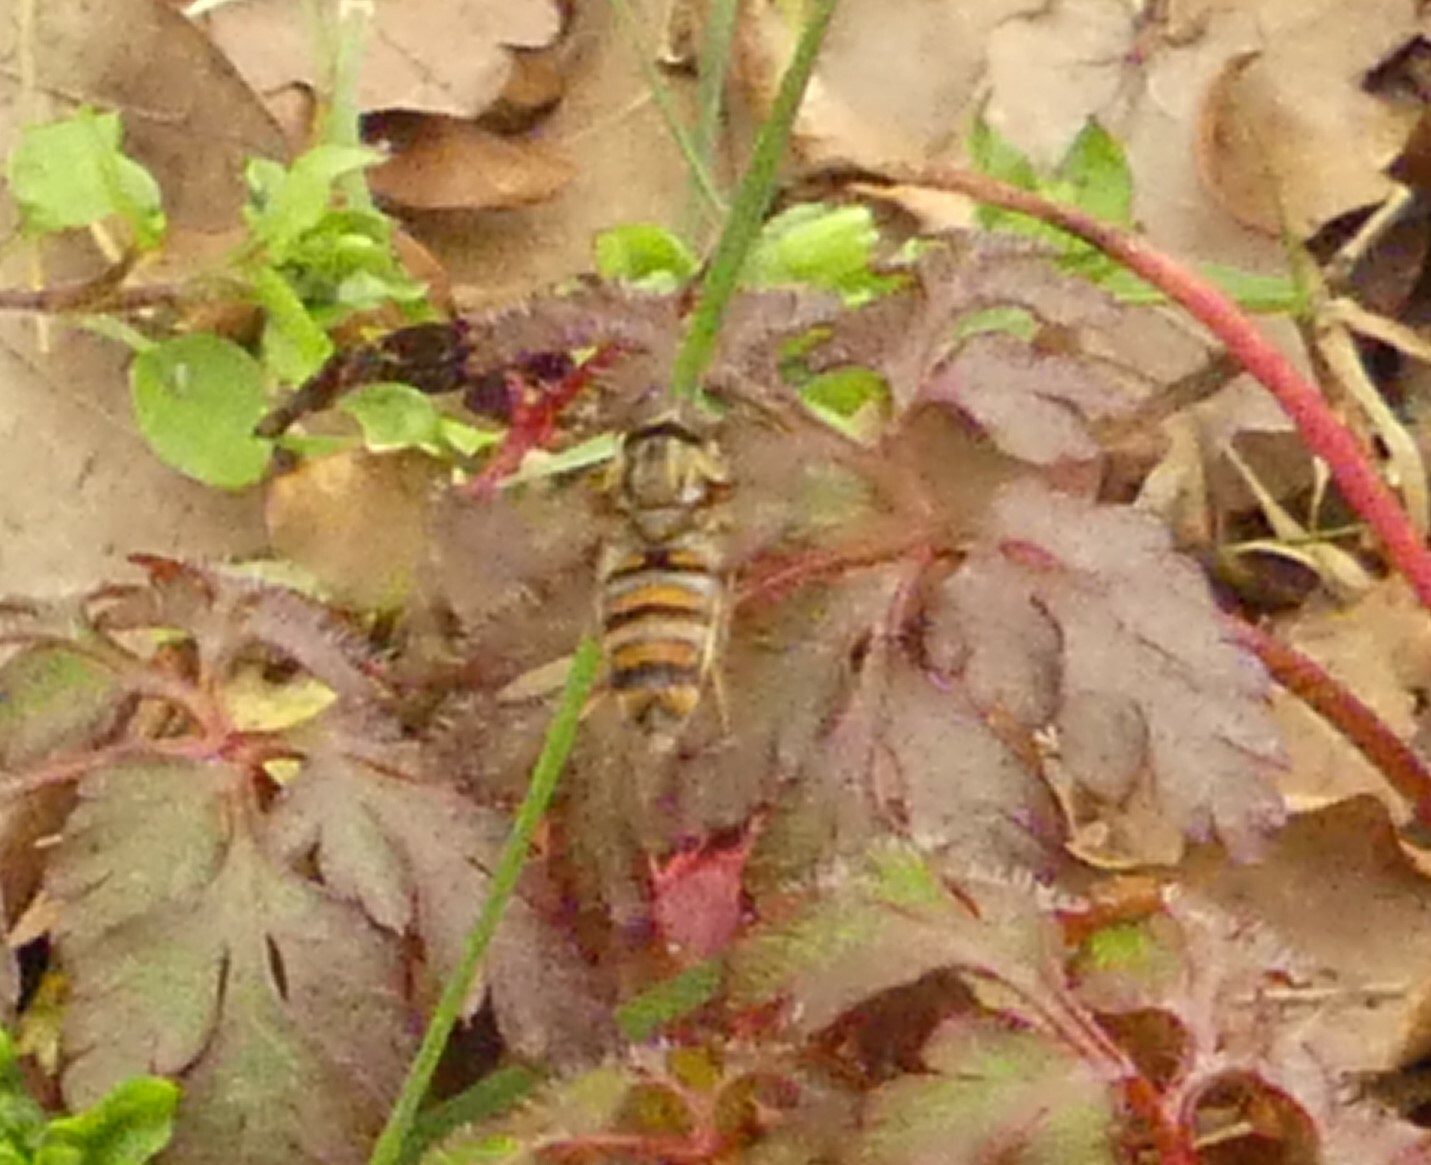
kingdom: Animalia
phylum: Arthropoda
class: Insecta
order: Diptera
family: Syrphidae
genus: Episyrphus
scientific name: Episyrphus balteatus
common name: Marmalade hoverfly
